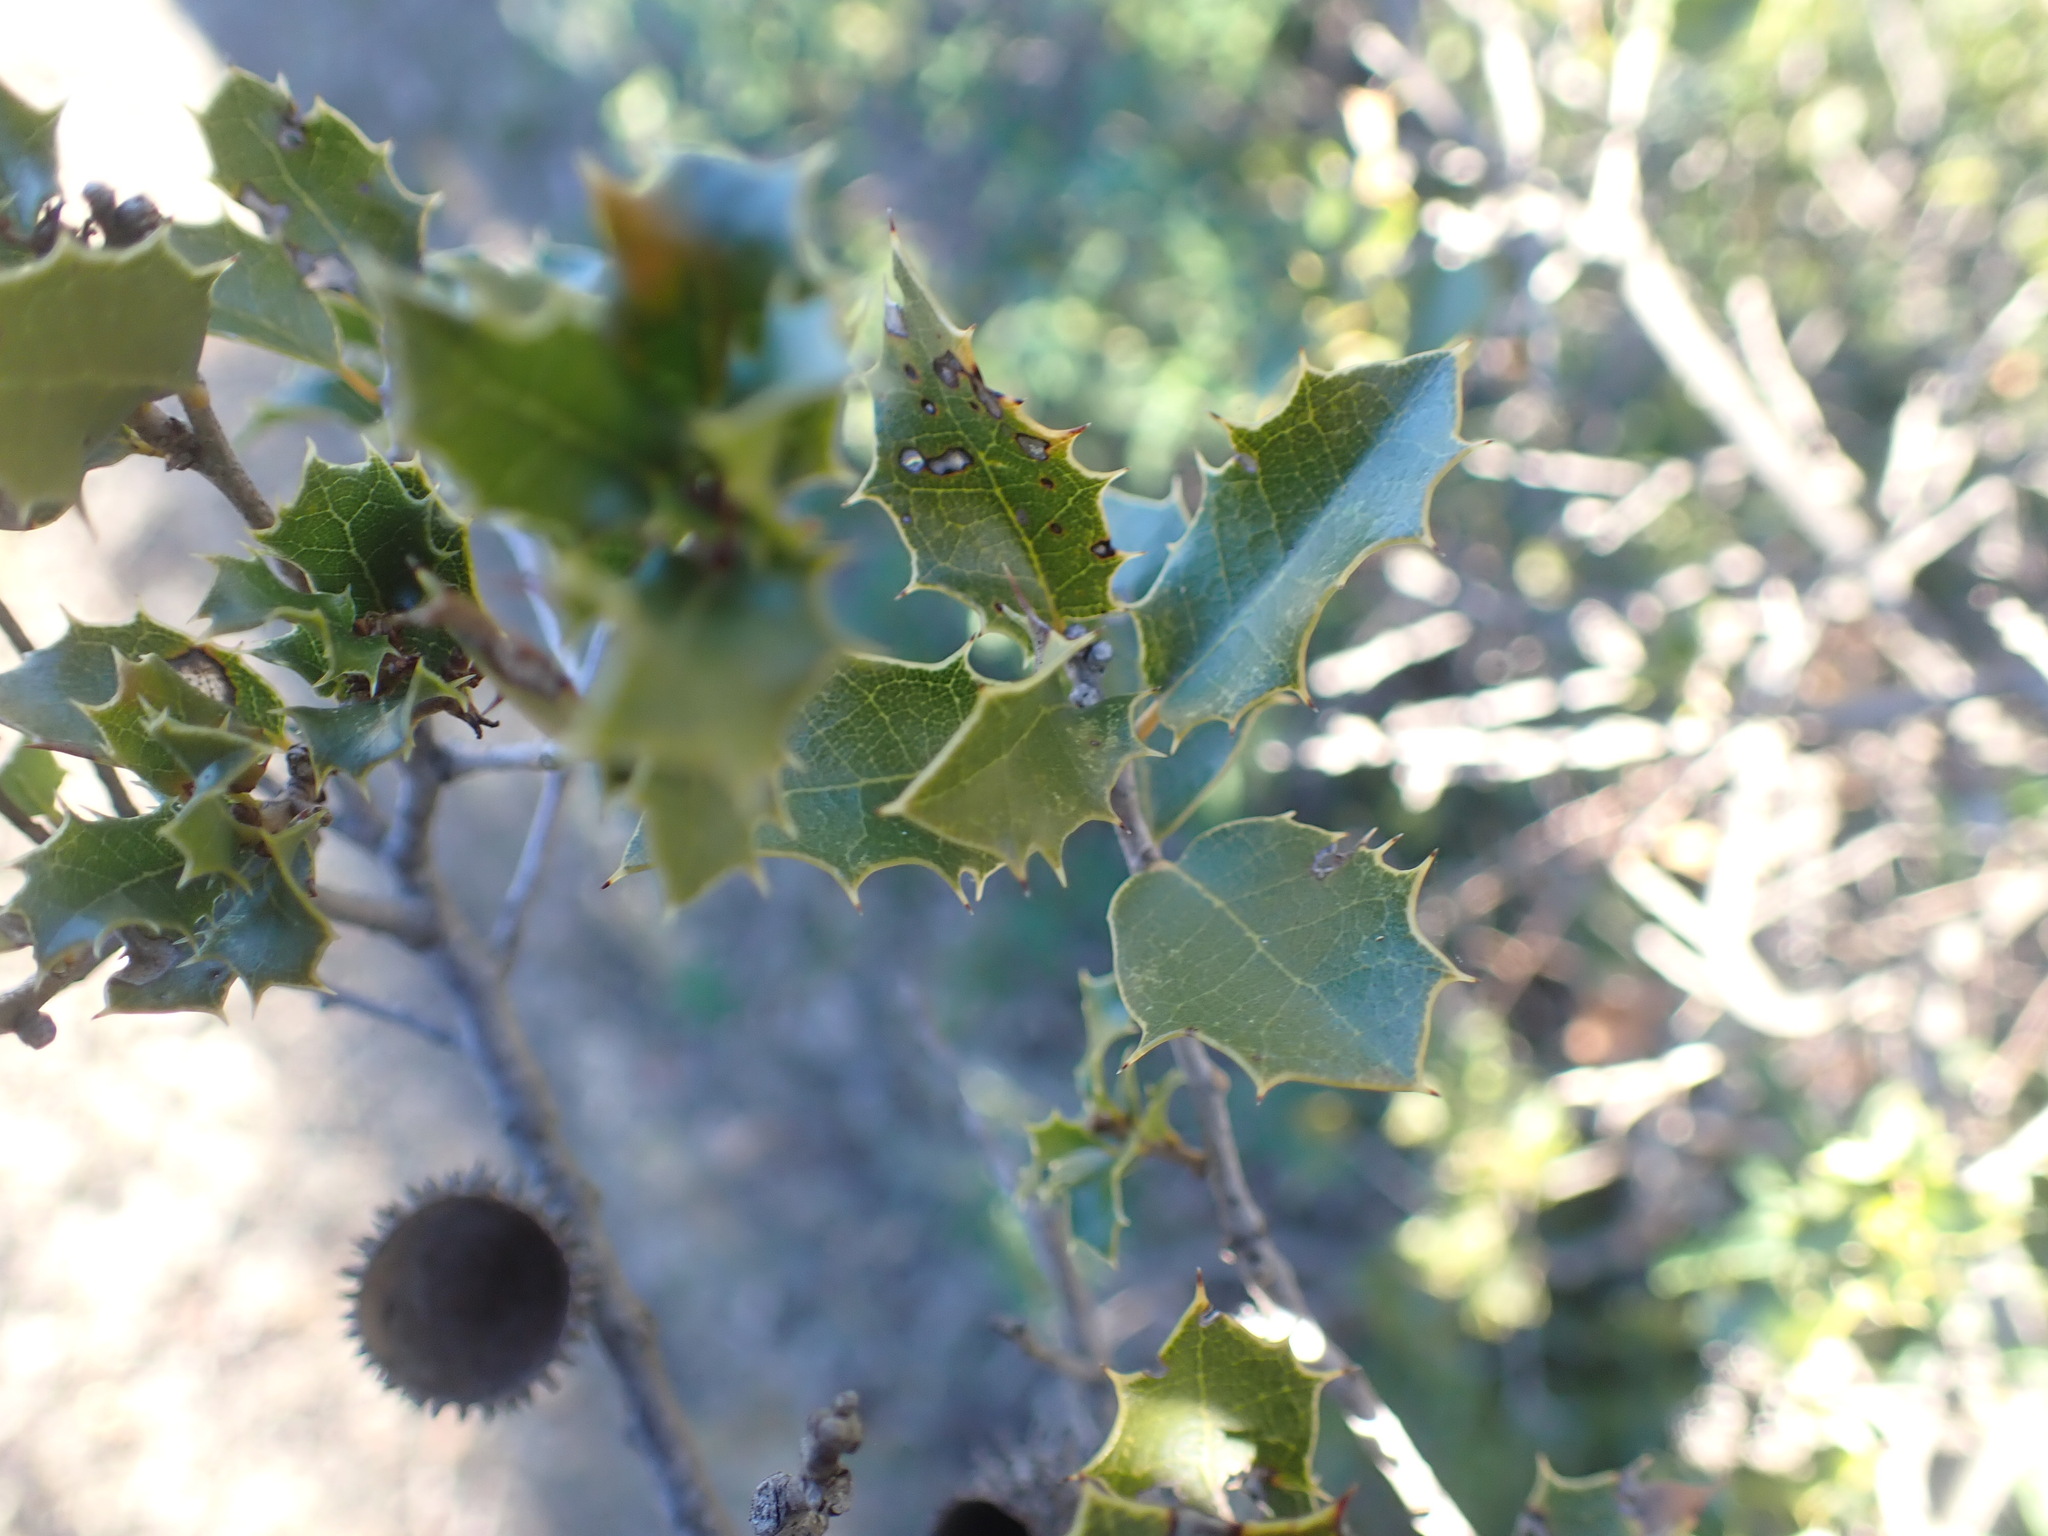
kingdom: Plantae
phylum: Tracheophyta
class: Magnoliopsida
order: Fagales
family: Fagaceae
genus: Quercus
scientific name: Quercus coccifera
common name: Kermes oak
